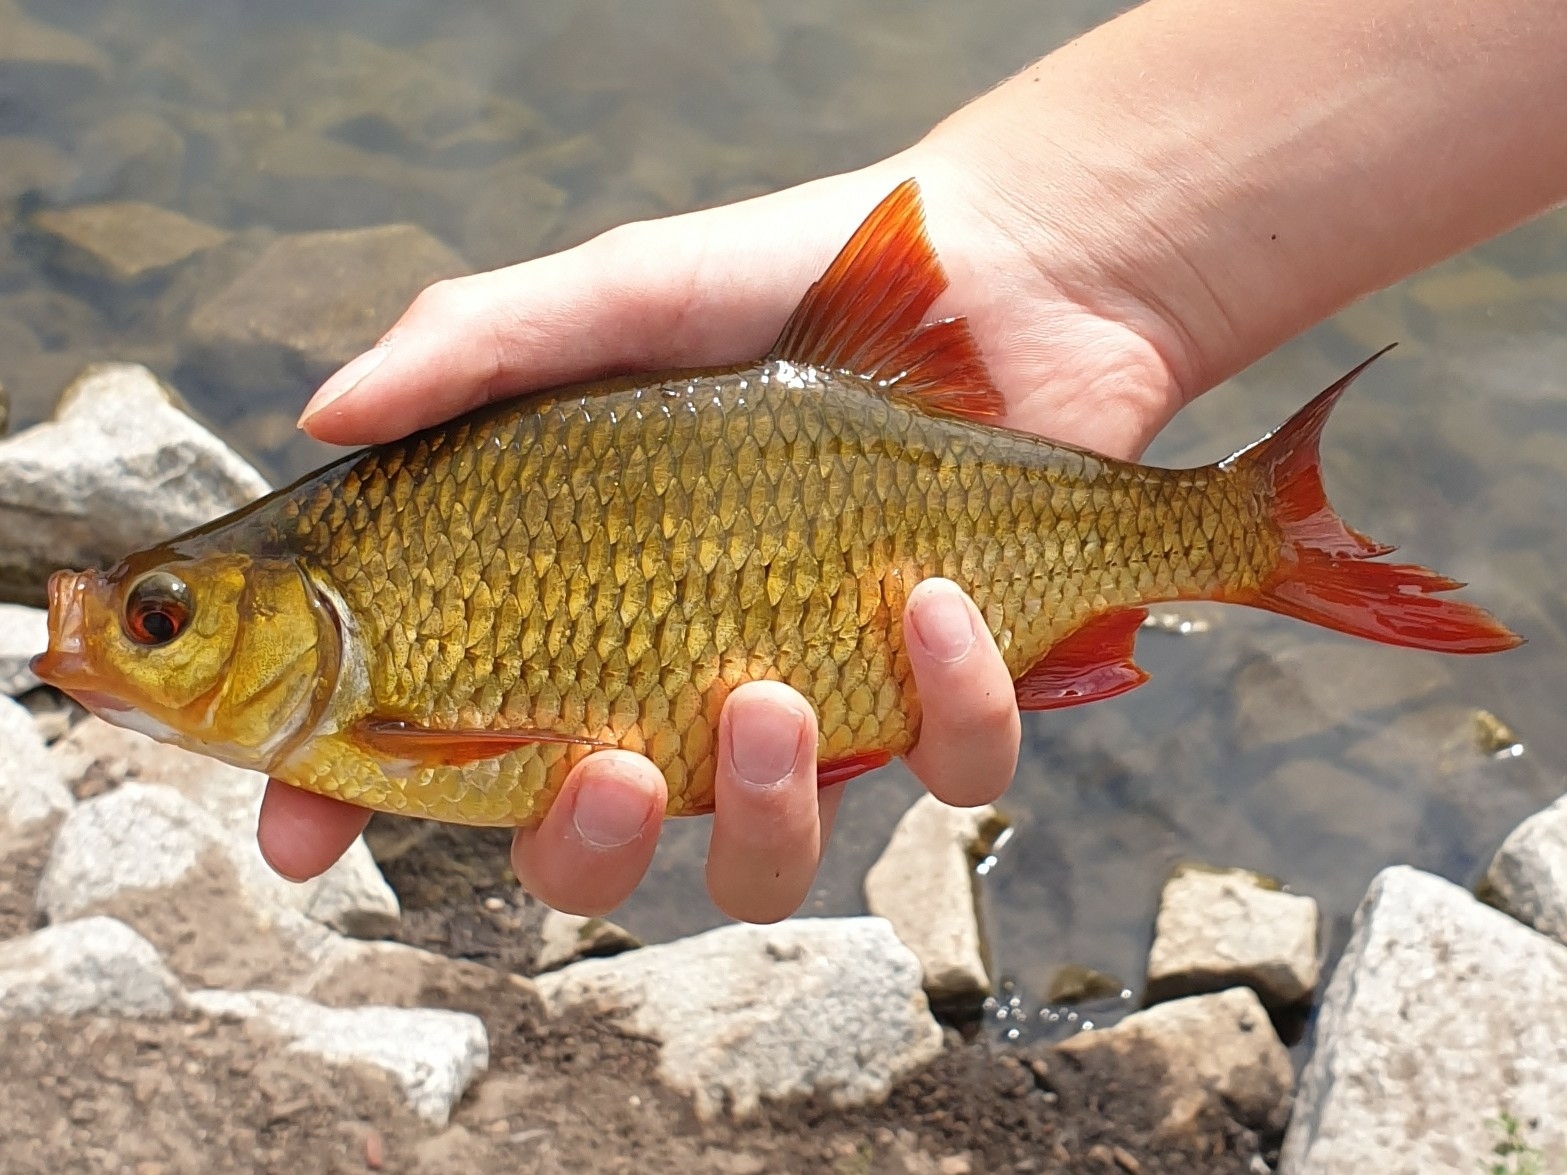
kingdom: Animalia
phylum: Chordata
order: Cypriniformes
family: Cyprinidae
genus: Scardinius
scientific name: Scardinius erythrophthalmus
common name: Rudd
